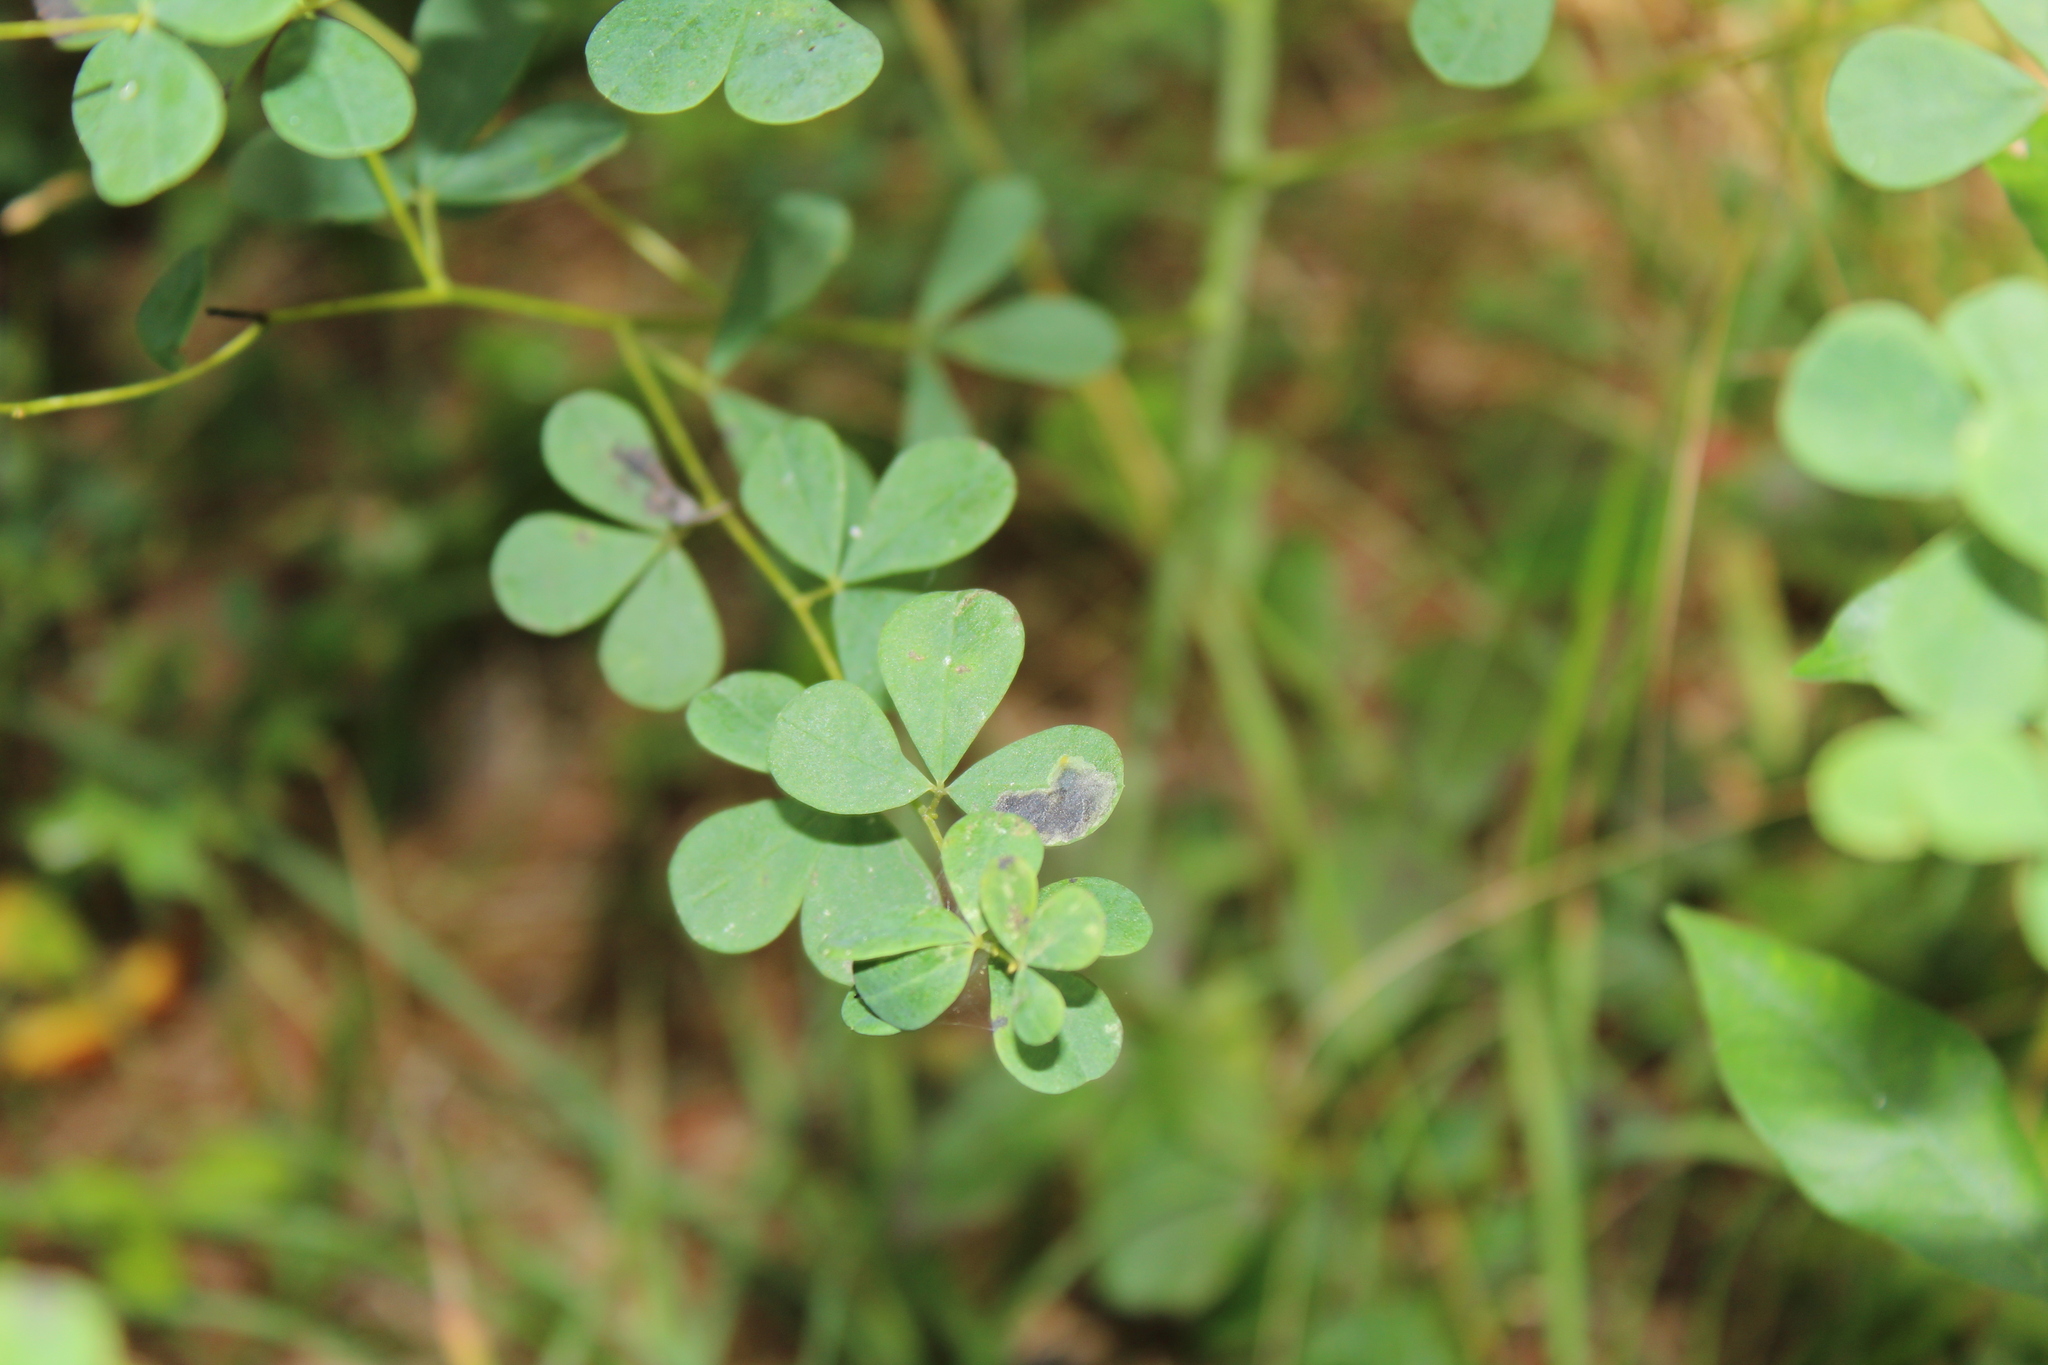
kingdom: Animalia
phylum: Arthropoda
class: Insecta
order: Diptera
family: Agromyzidae
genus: Liriomyza
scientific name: Liriomyza baptisiae
